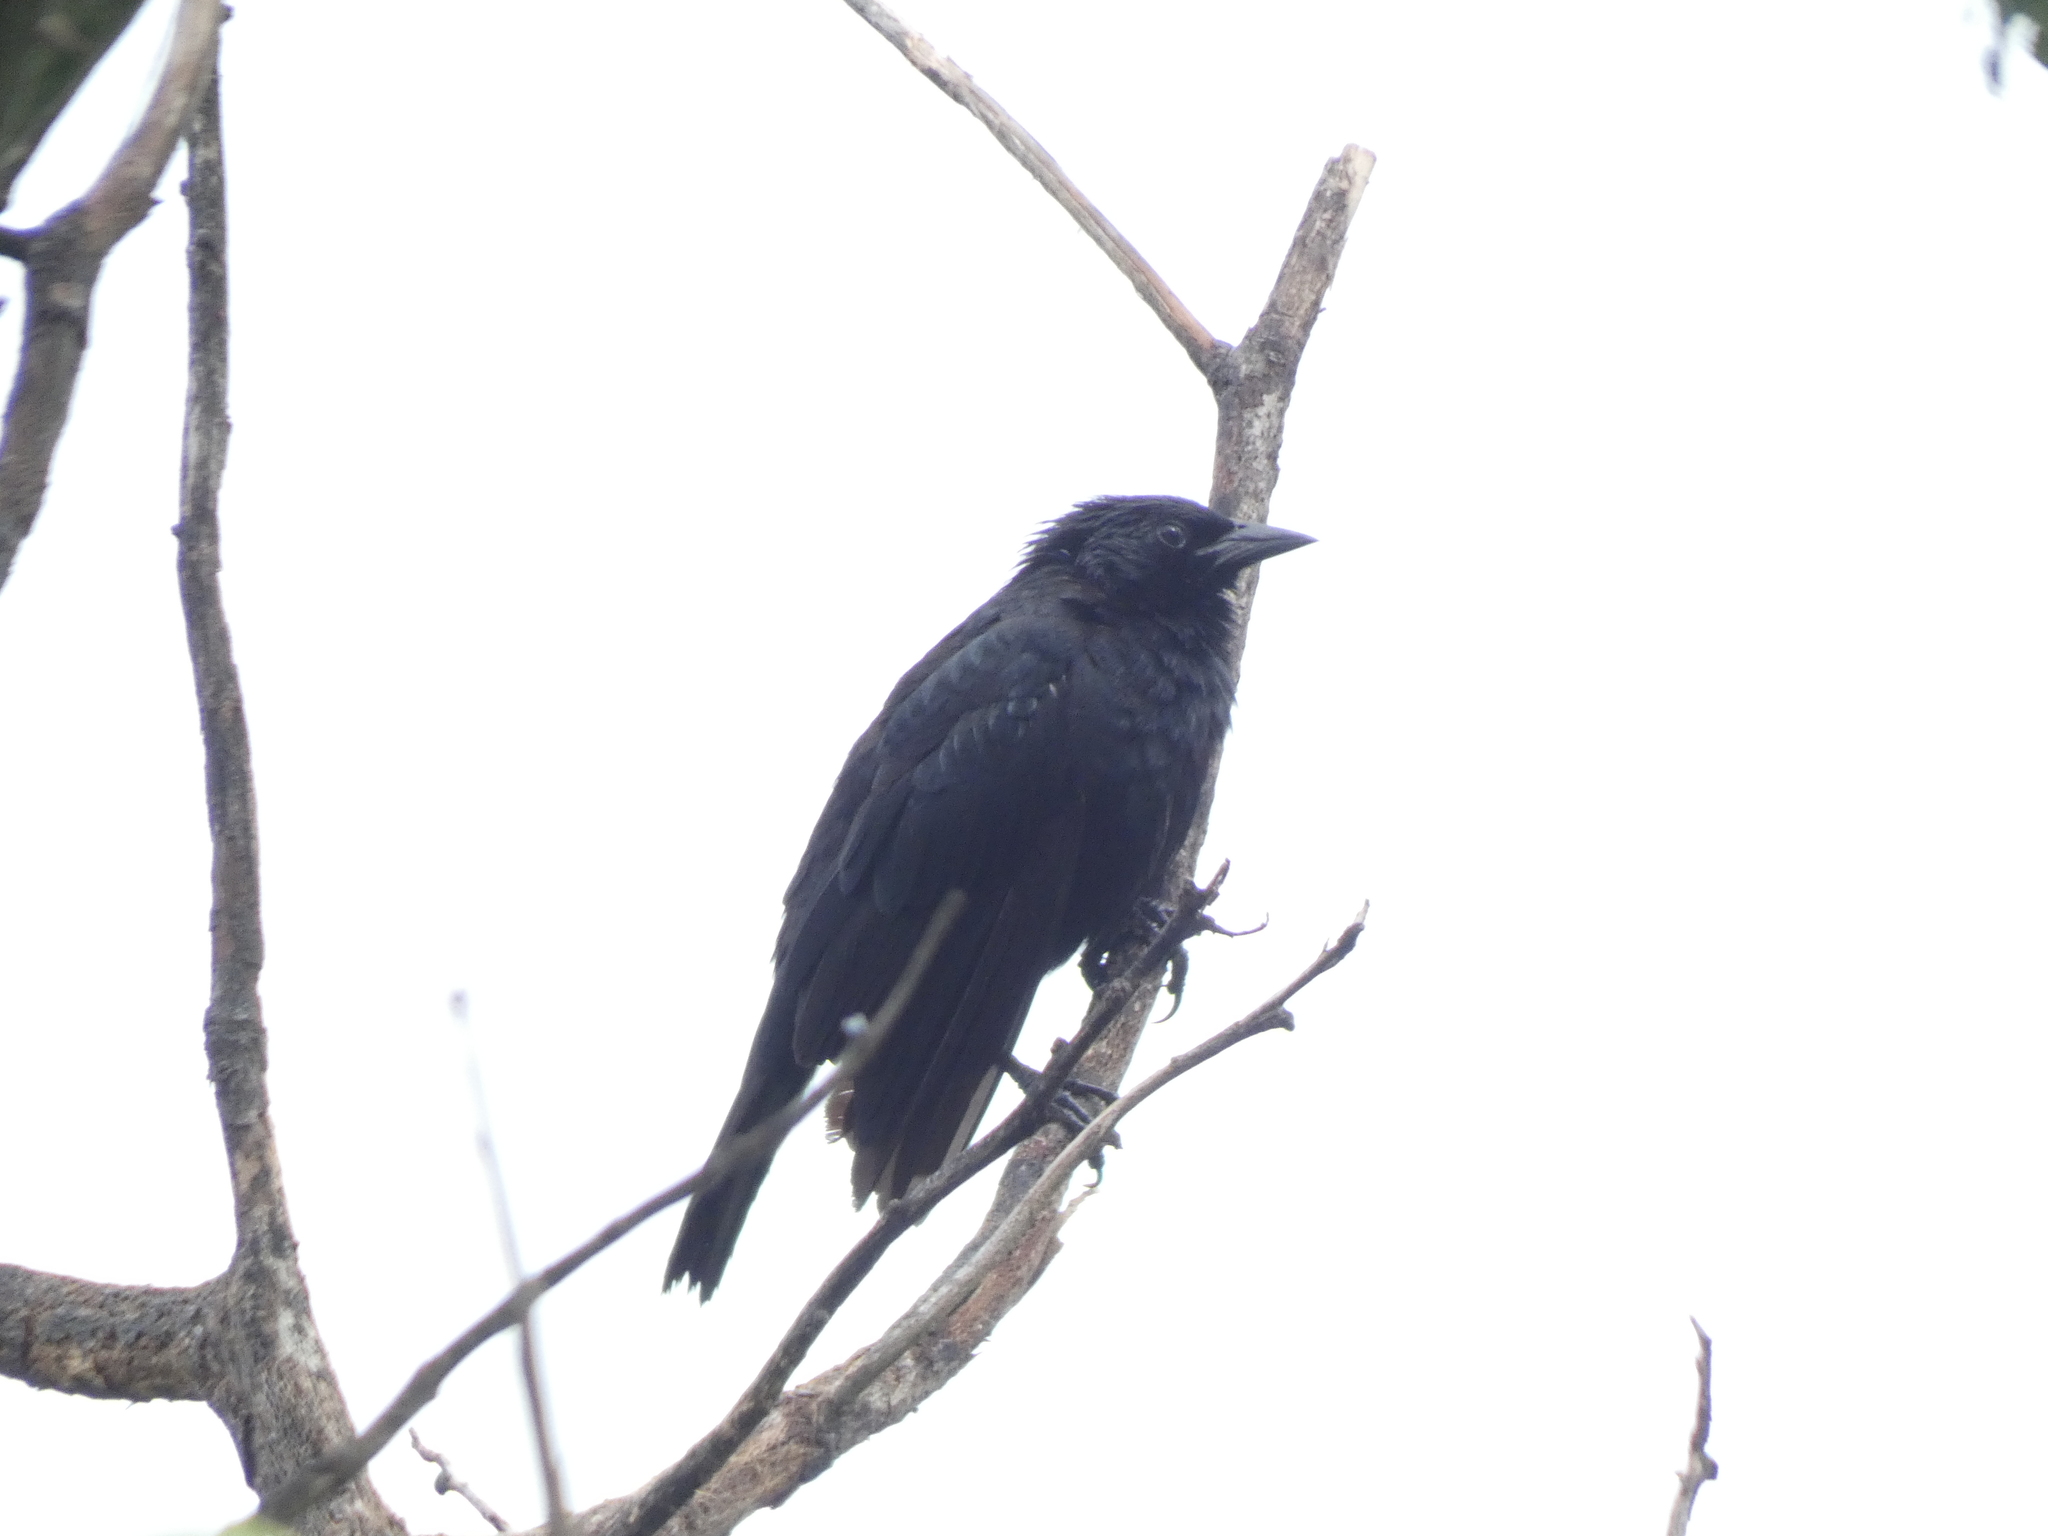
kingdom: Animalia
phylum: Chordata
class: Aves
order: Passeriformes
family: Icteridae
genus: Gnorimopsar
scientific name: Gnorimopsar chopi
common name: Chopi blackbird
